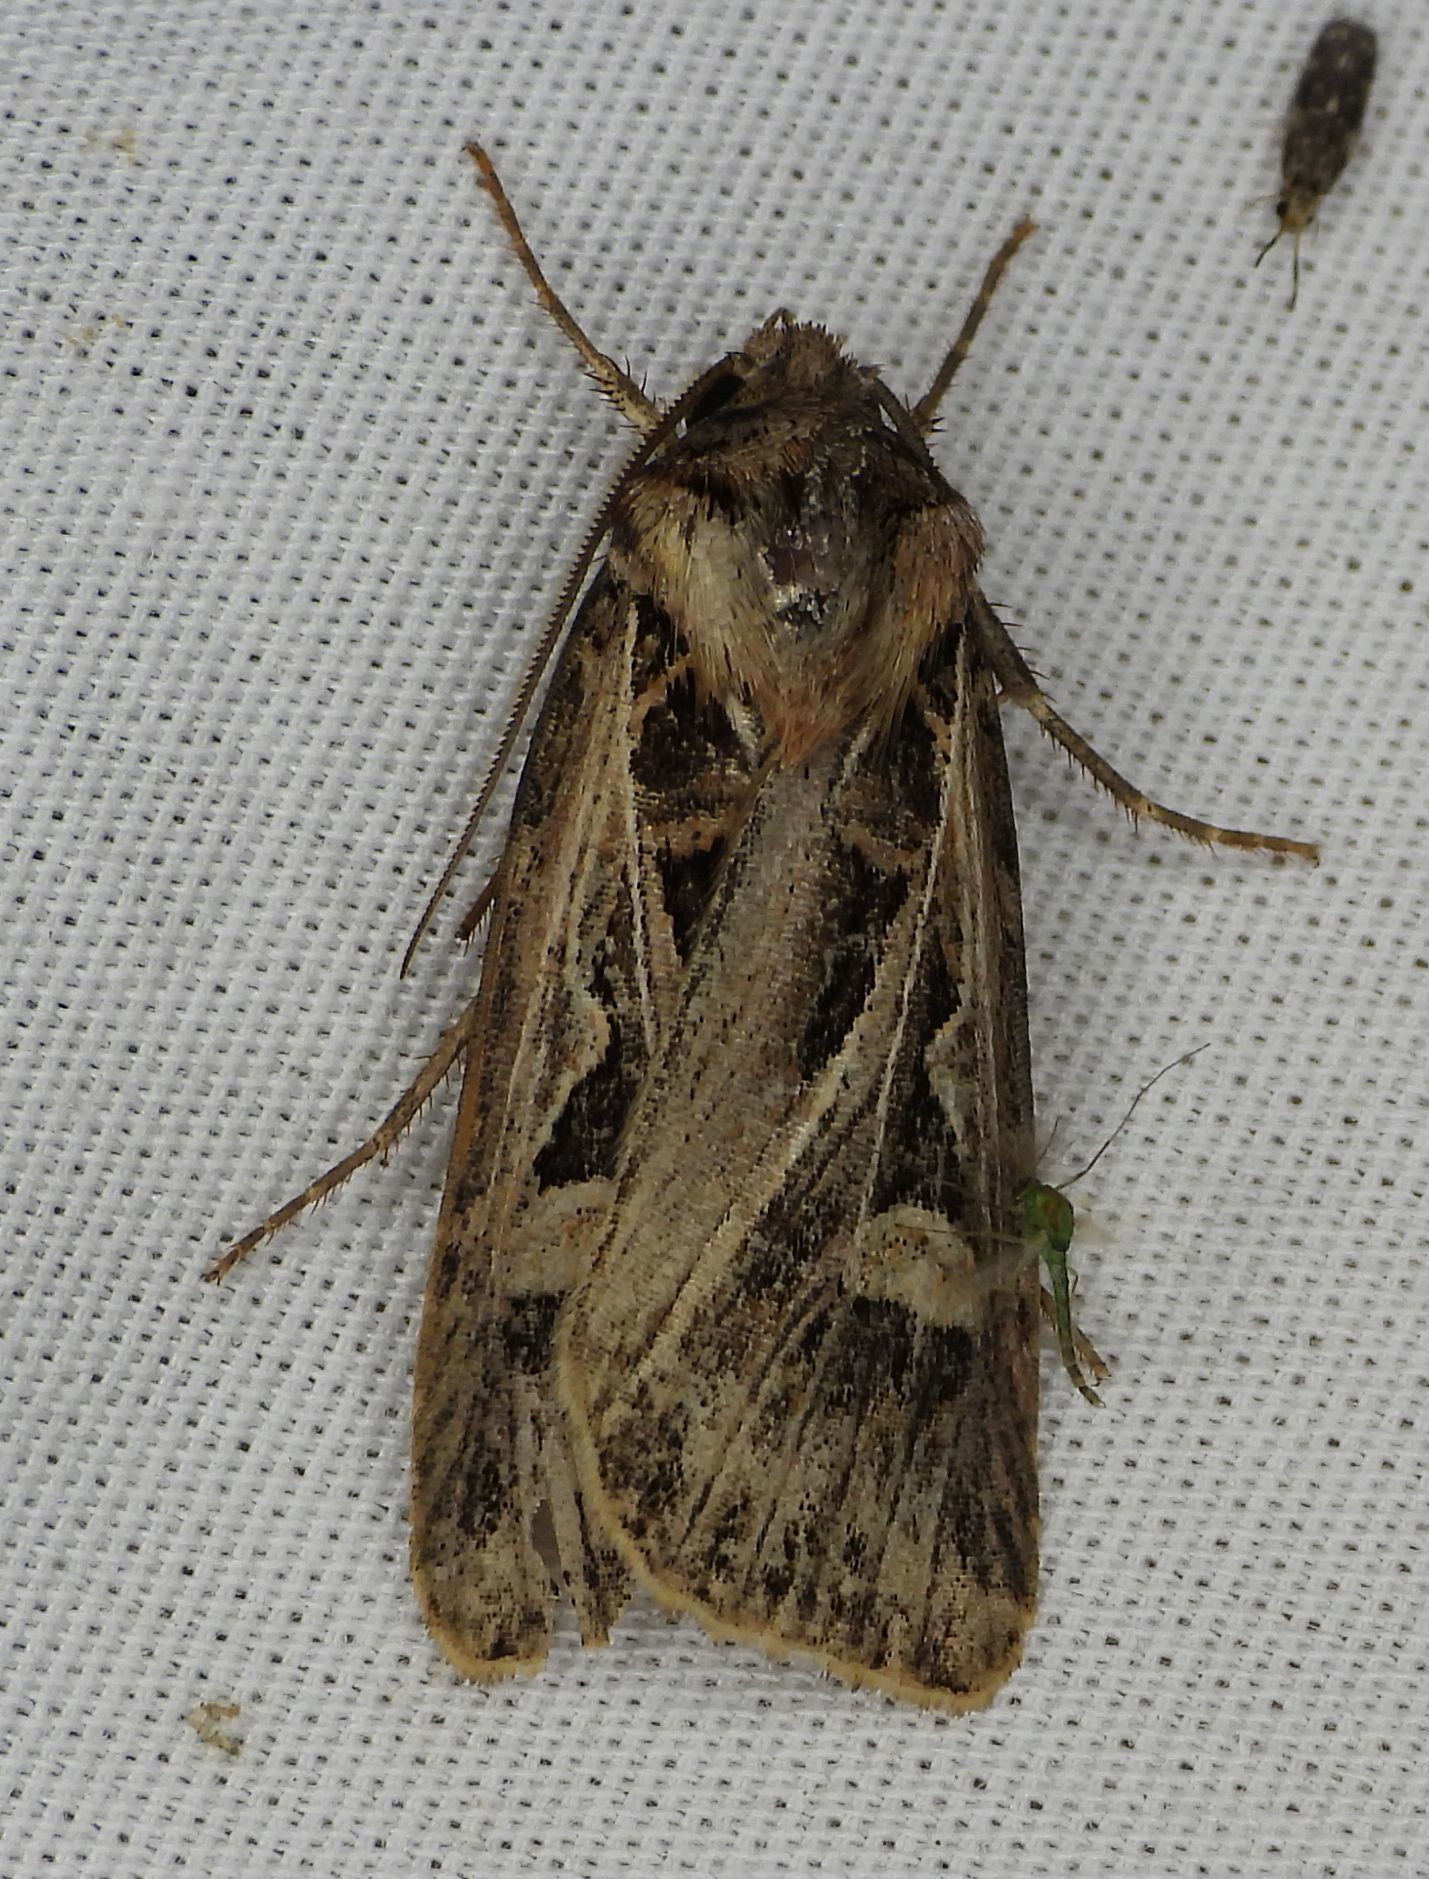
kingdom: Animalia
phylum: Arthropoda
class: Insecta
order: Lepidoptera
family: Noctuidae
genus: Feltia
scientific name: Feltia jaculifera
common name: Dingy cutworm moth
